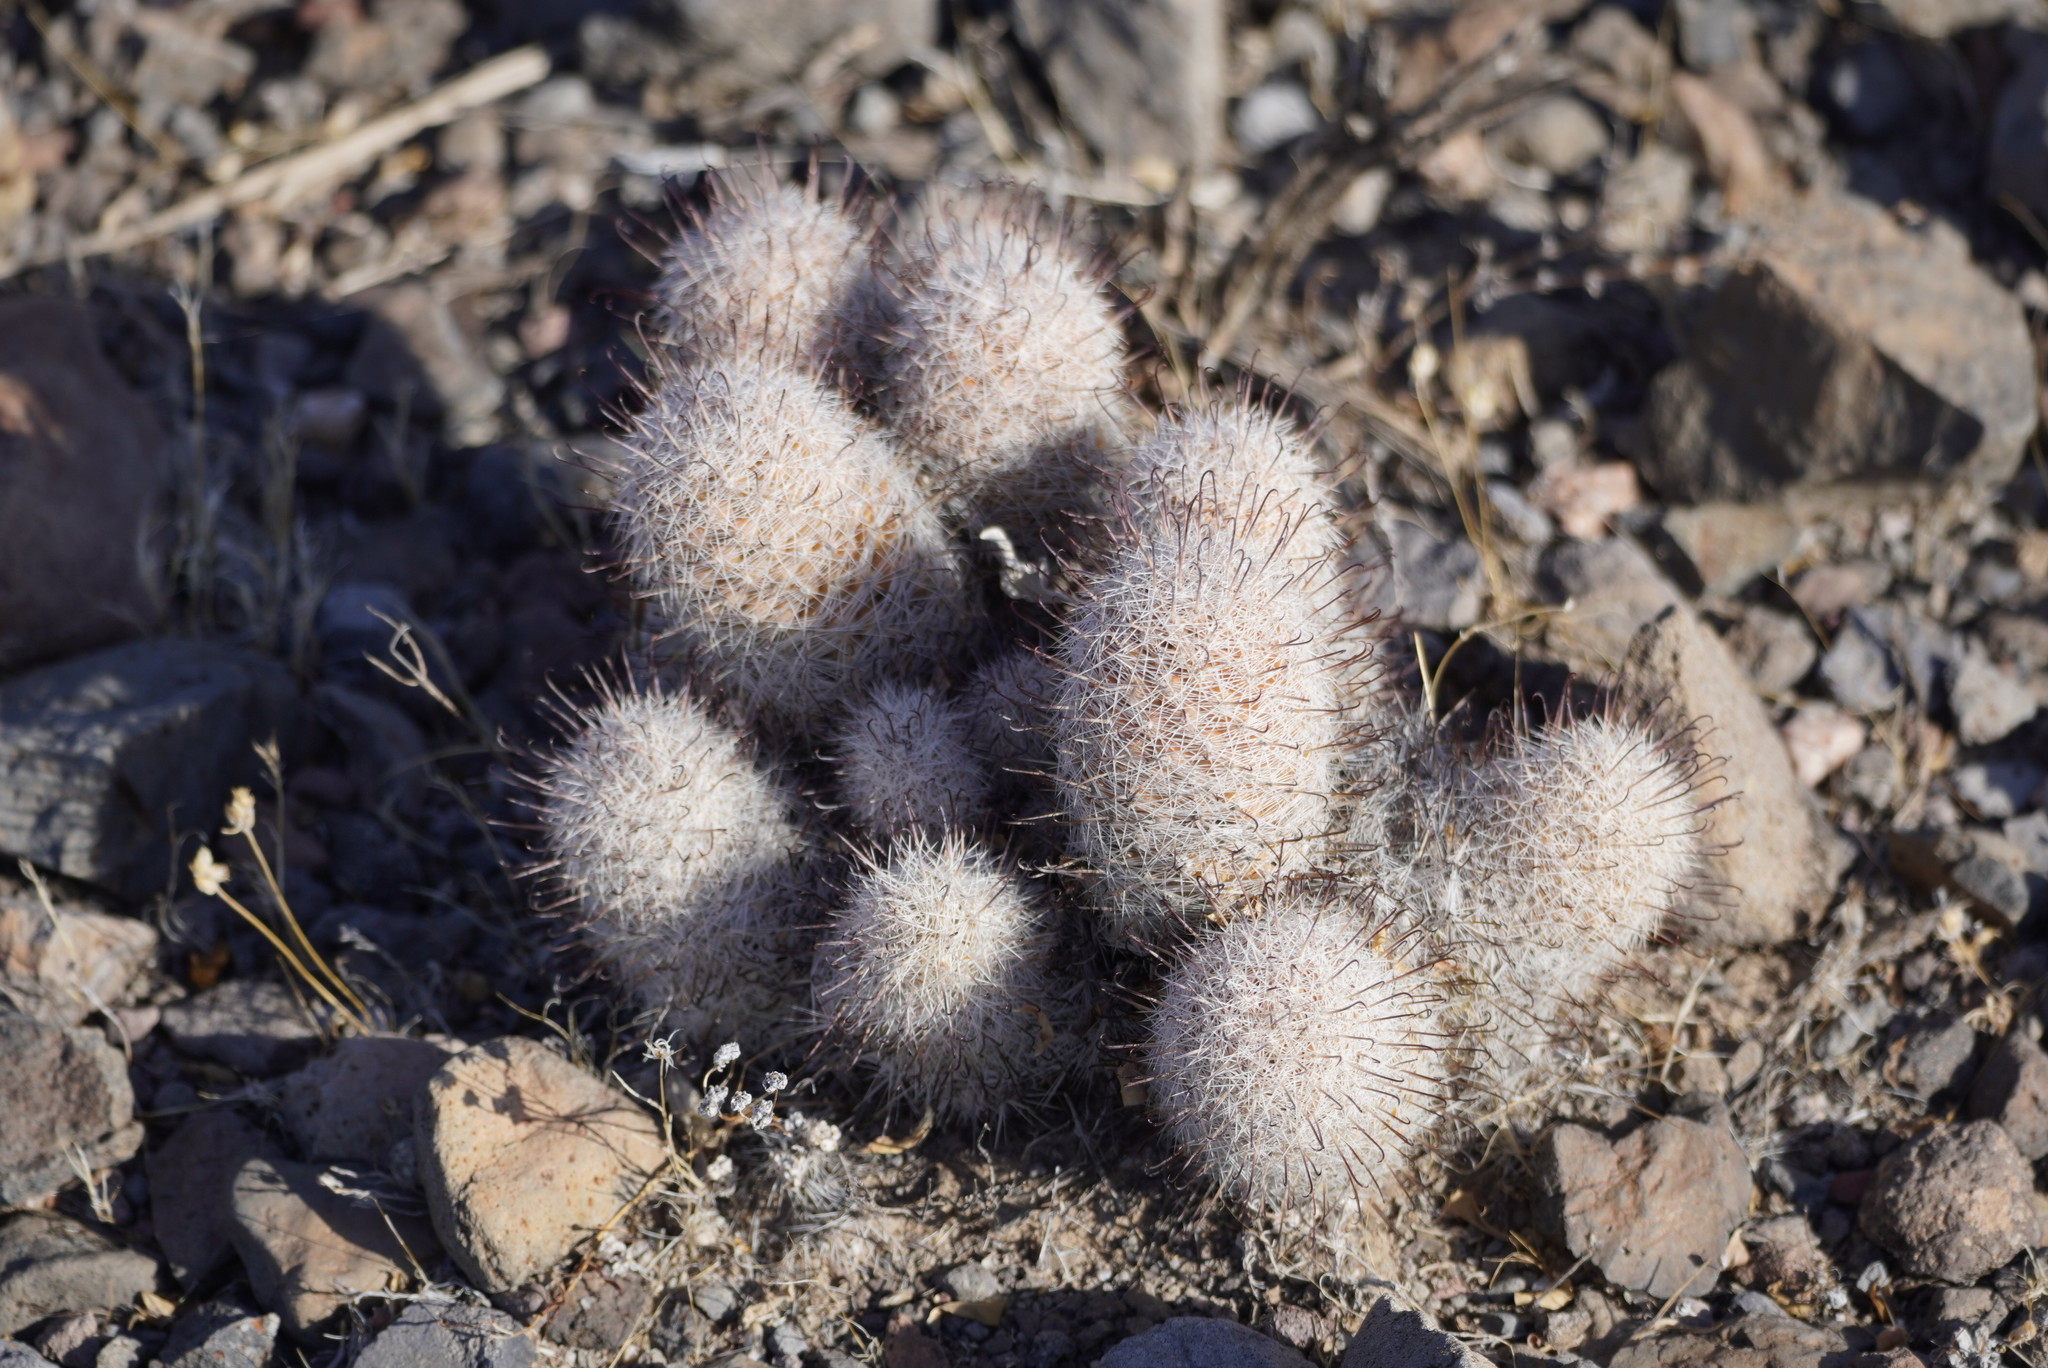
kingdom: Plantae
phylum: Tracheophyta
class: Magnoliopsida
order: Caryophyllales
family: Cactaceae
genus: Cochemiea
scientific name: Cochemiea grahamii
